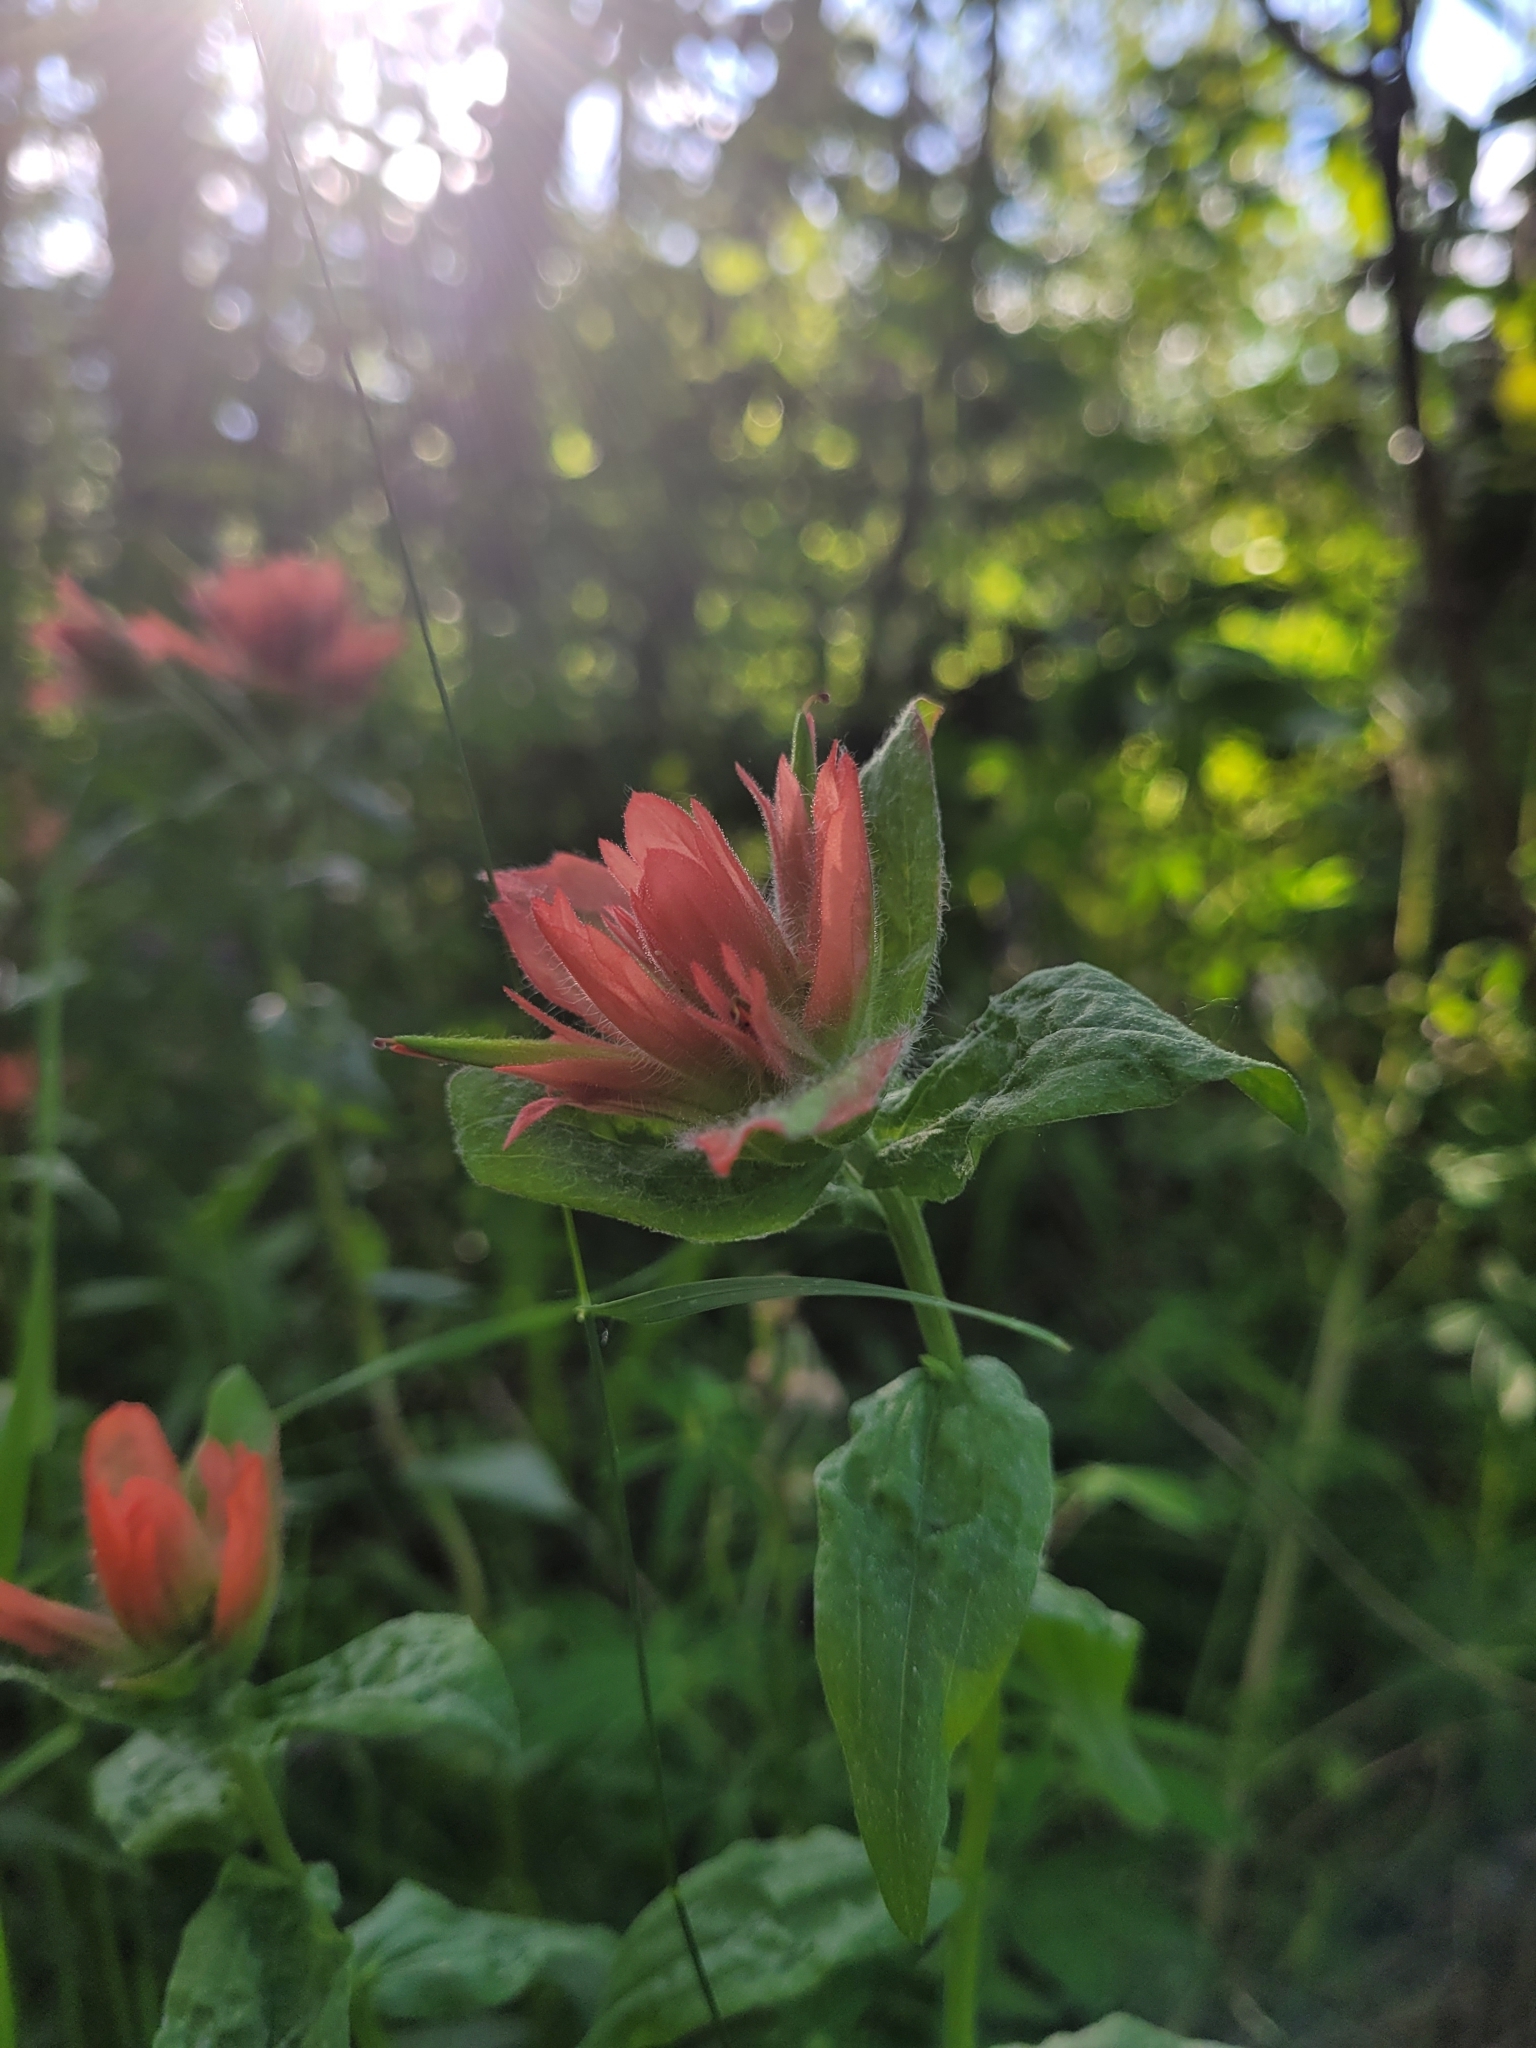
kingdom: Plantae
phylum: Tracheophyta
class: Magnoliopsida
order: Lamiales
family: Orobanchaceae
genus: Castilleja
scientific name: Castilleja miniata
